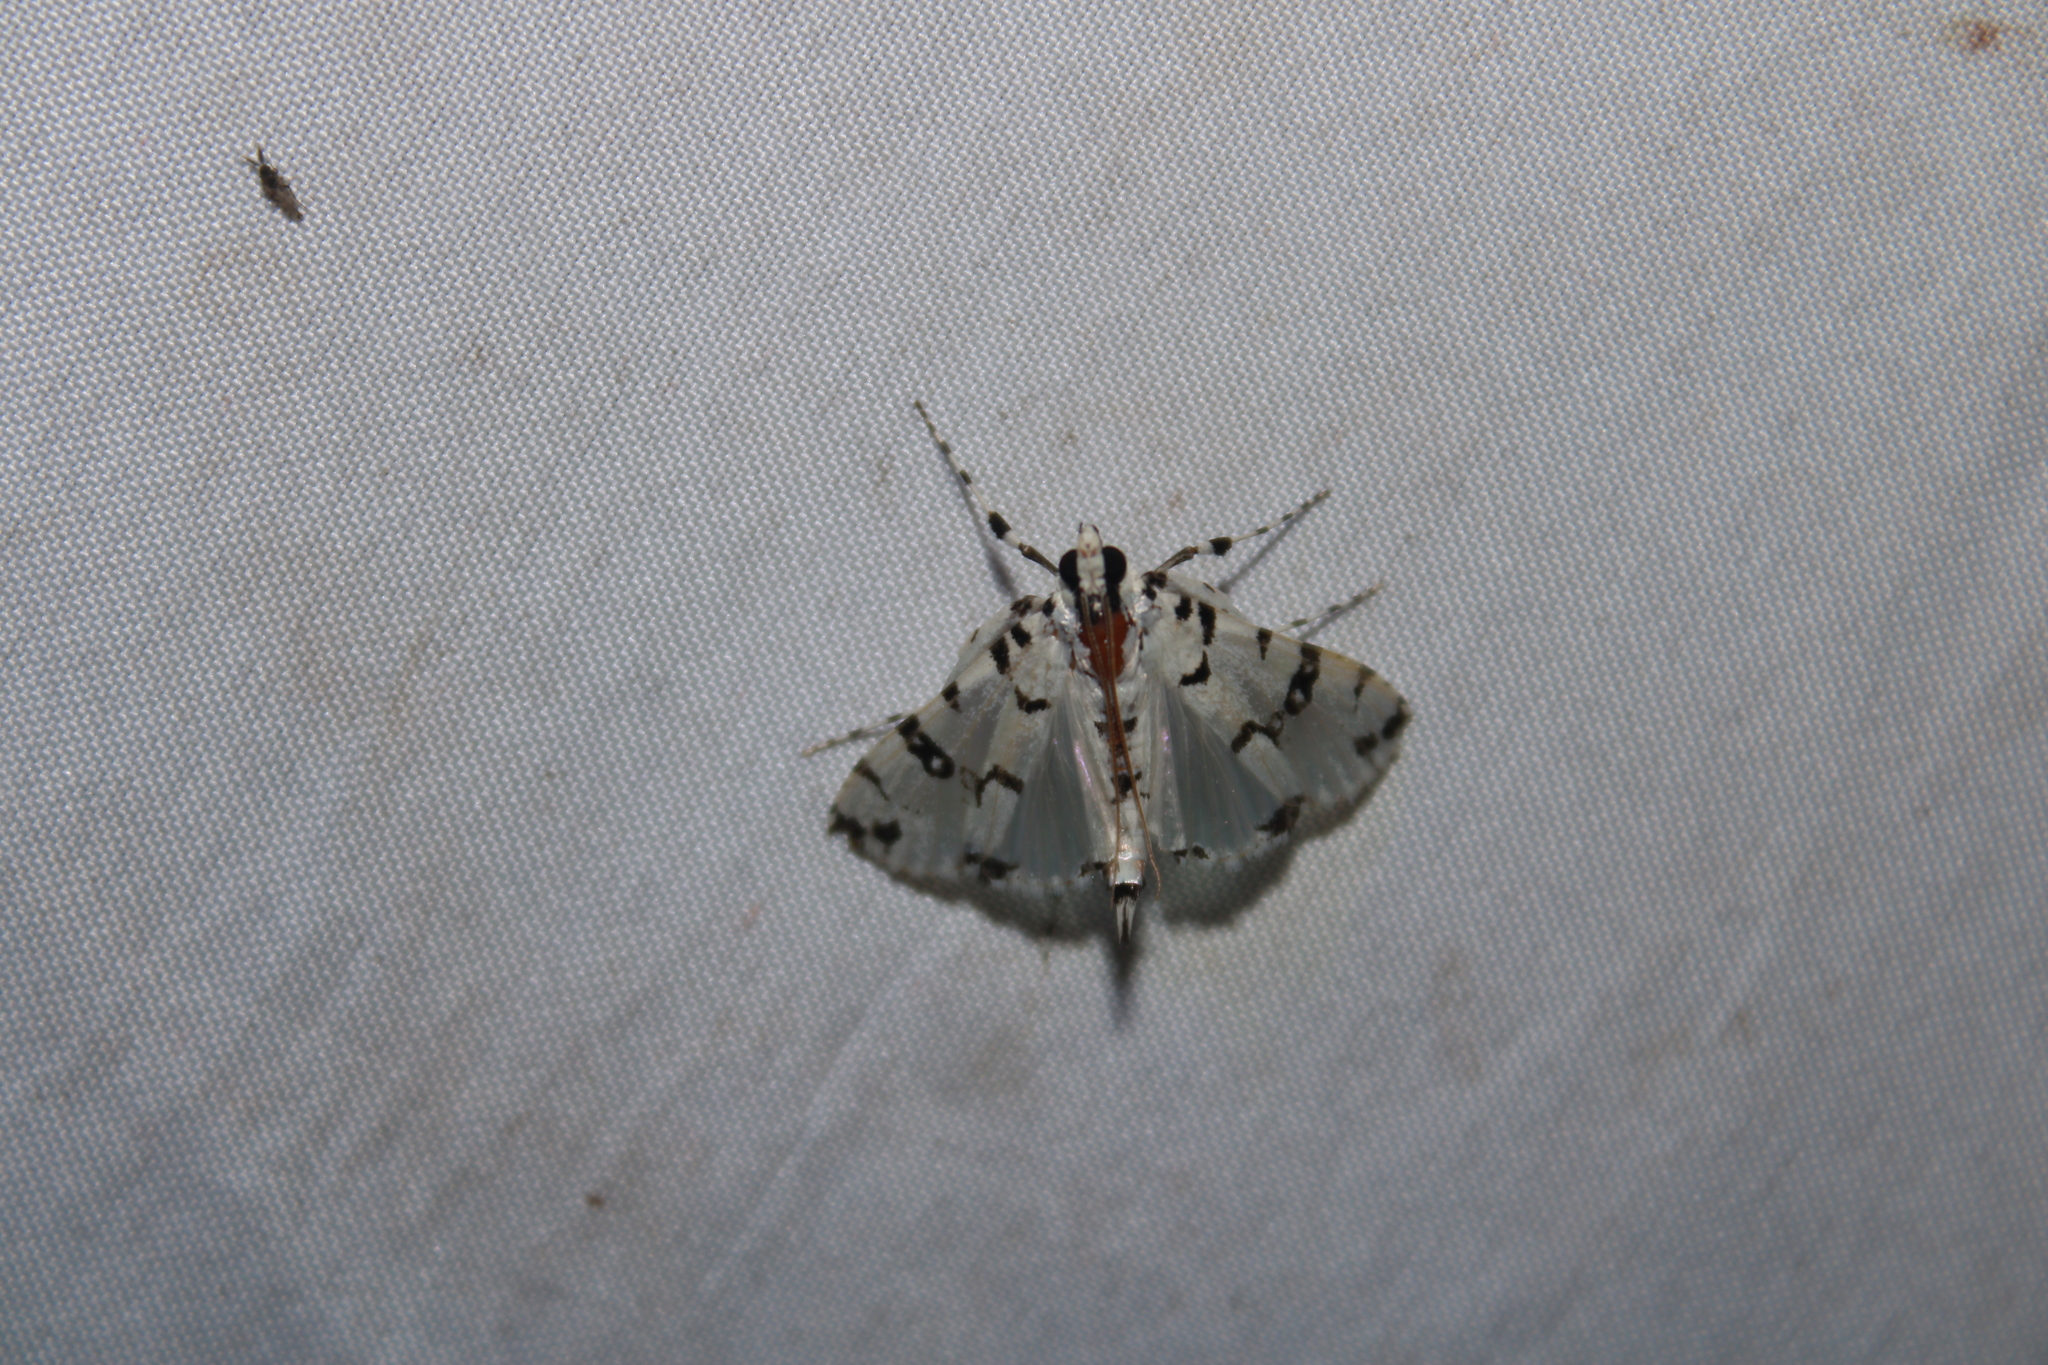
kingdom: Animalia
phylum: Arthropoda
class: Insecta
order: Lepidoptera
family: Crambidae
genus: Conchylodes
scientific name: Conchylodes diphteralis
